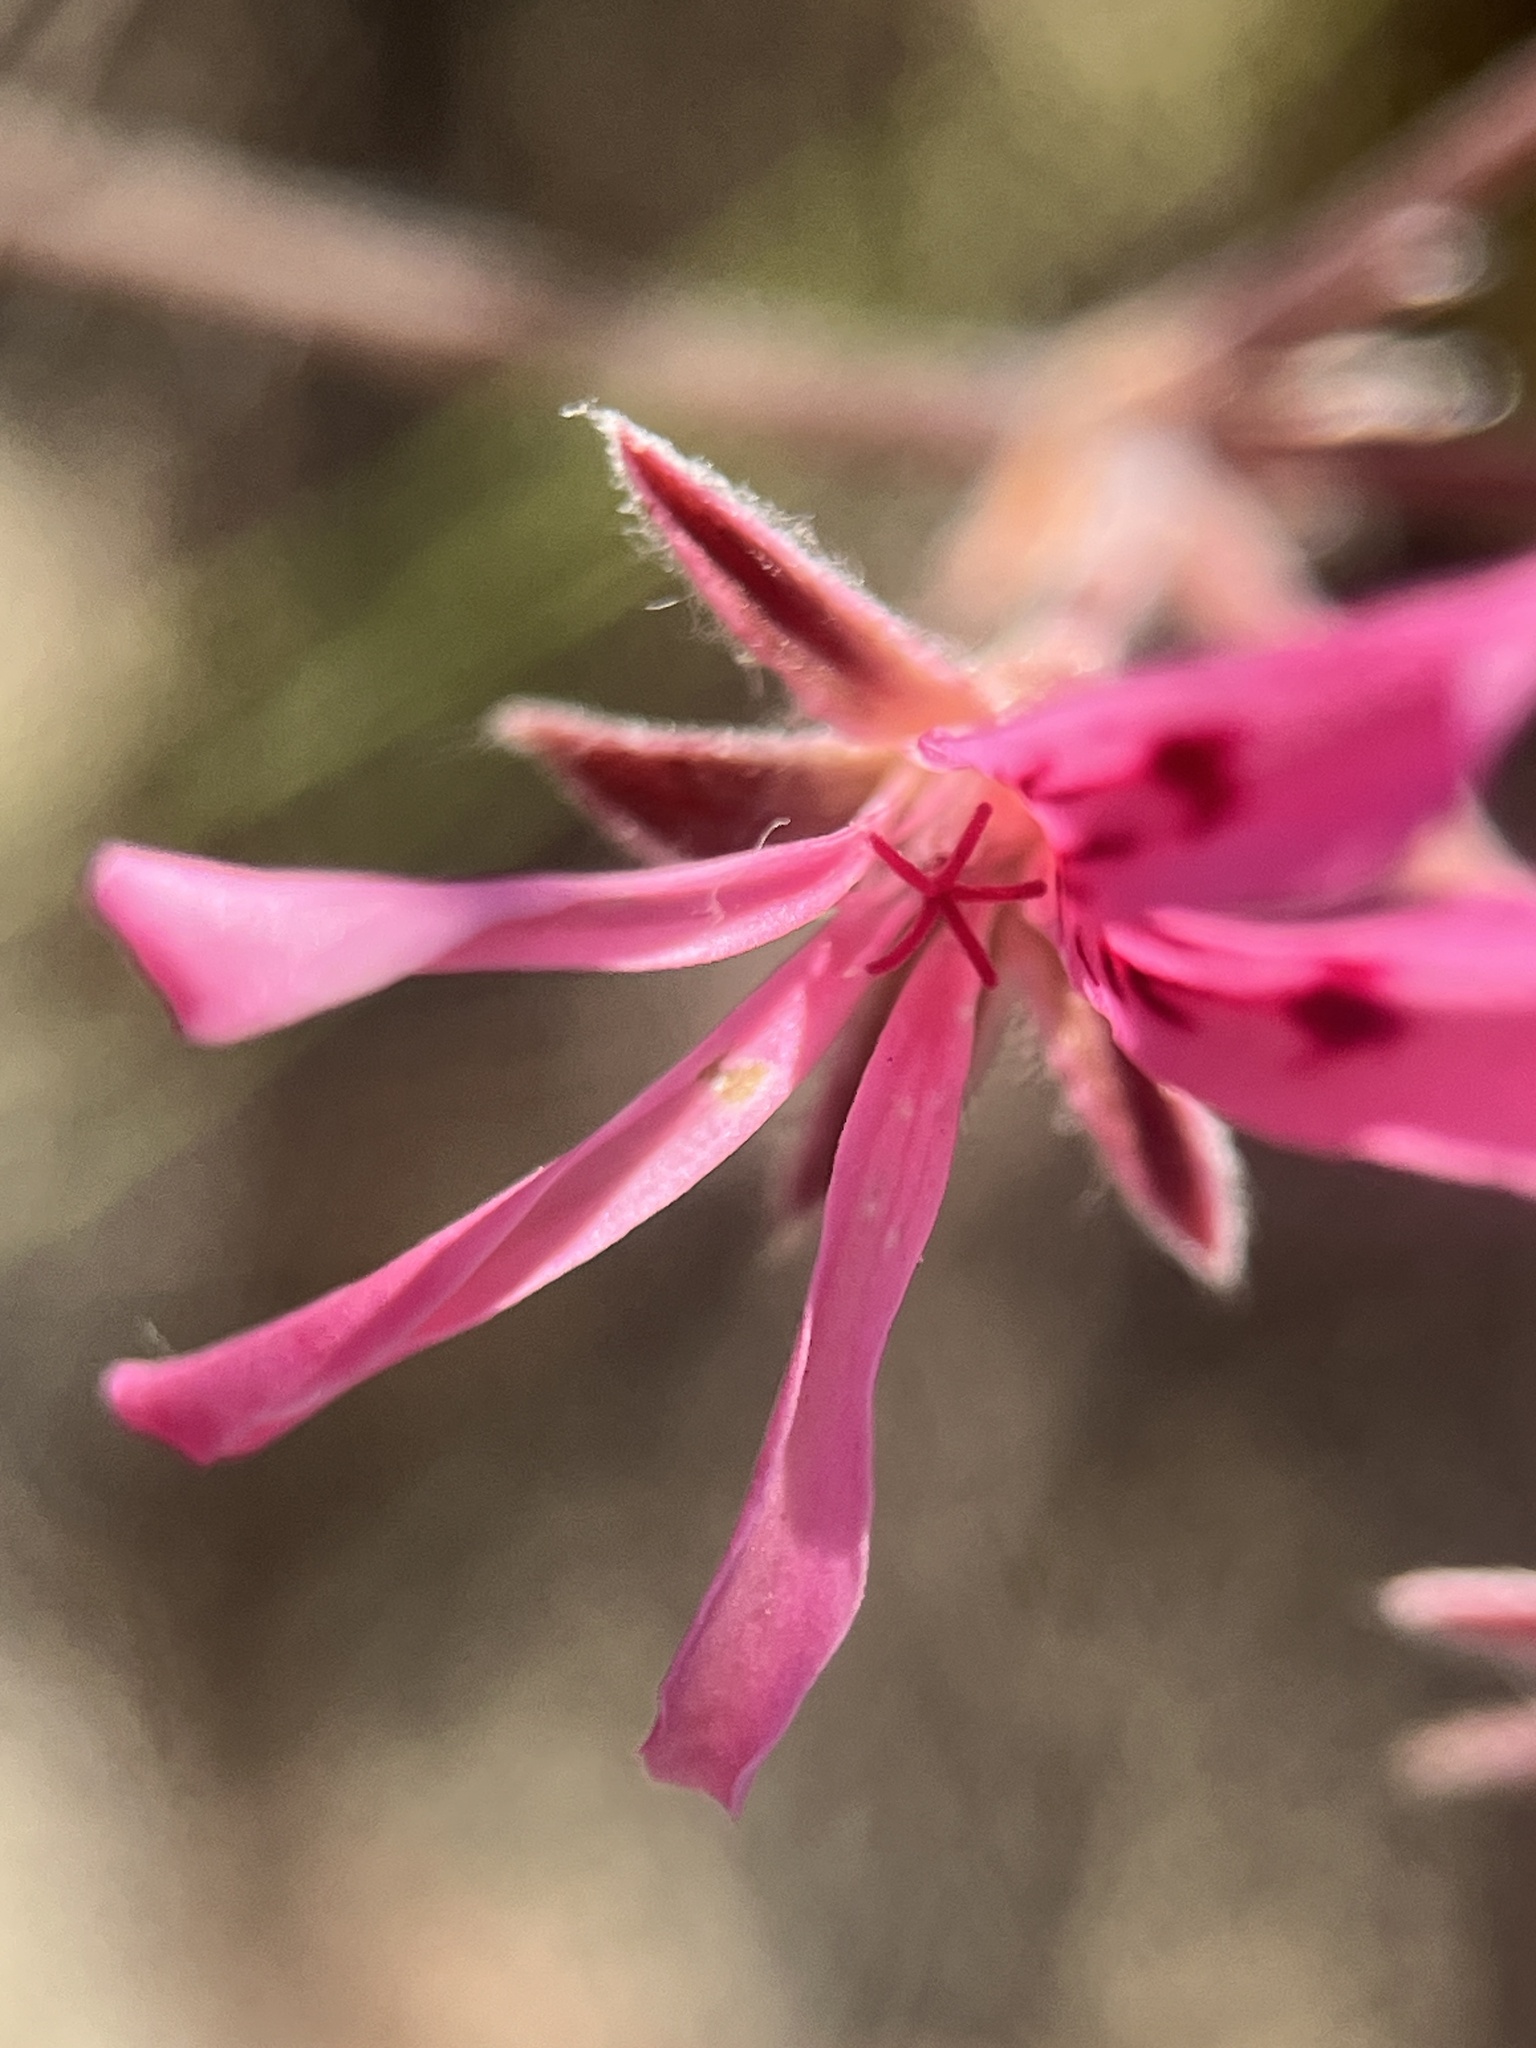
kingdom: Plantae
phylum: Tracheophyta
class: Magnoliopsida
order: Geraniales
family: Geraniaceae
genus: Pelargonium
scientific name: Pelargonium pinnatum
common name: Pinnated pelargonium
